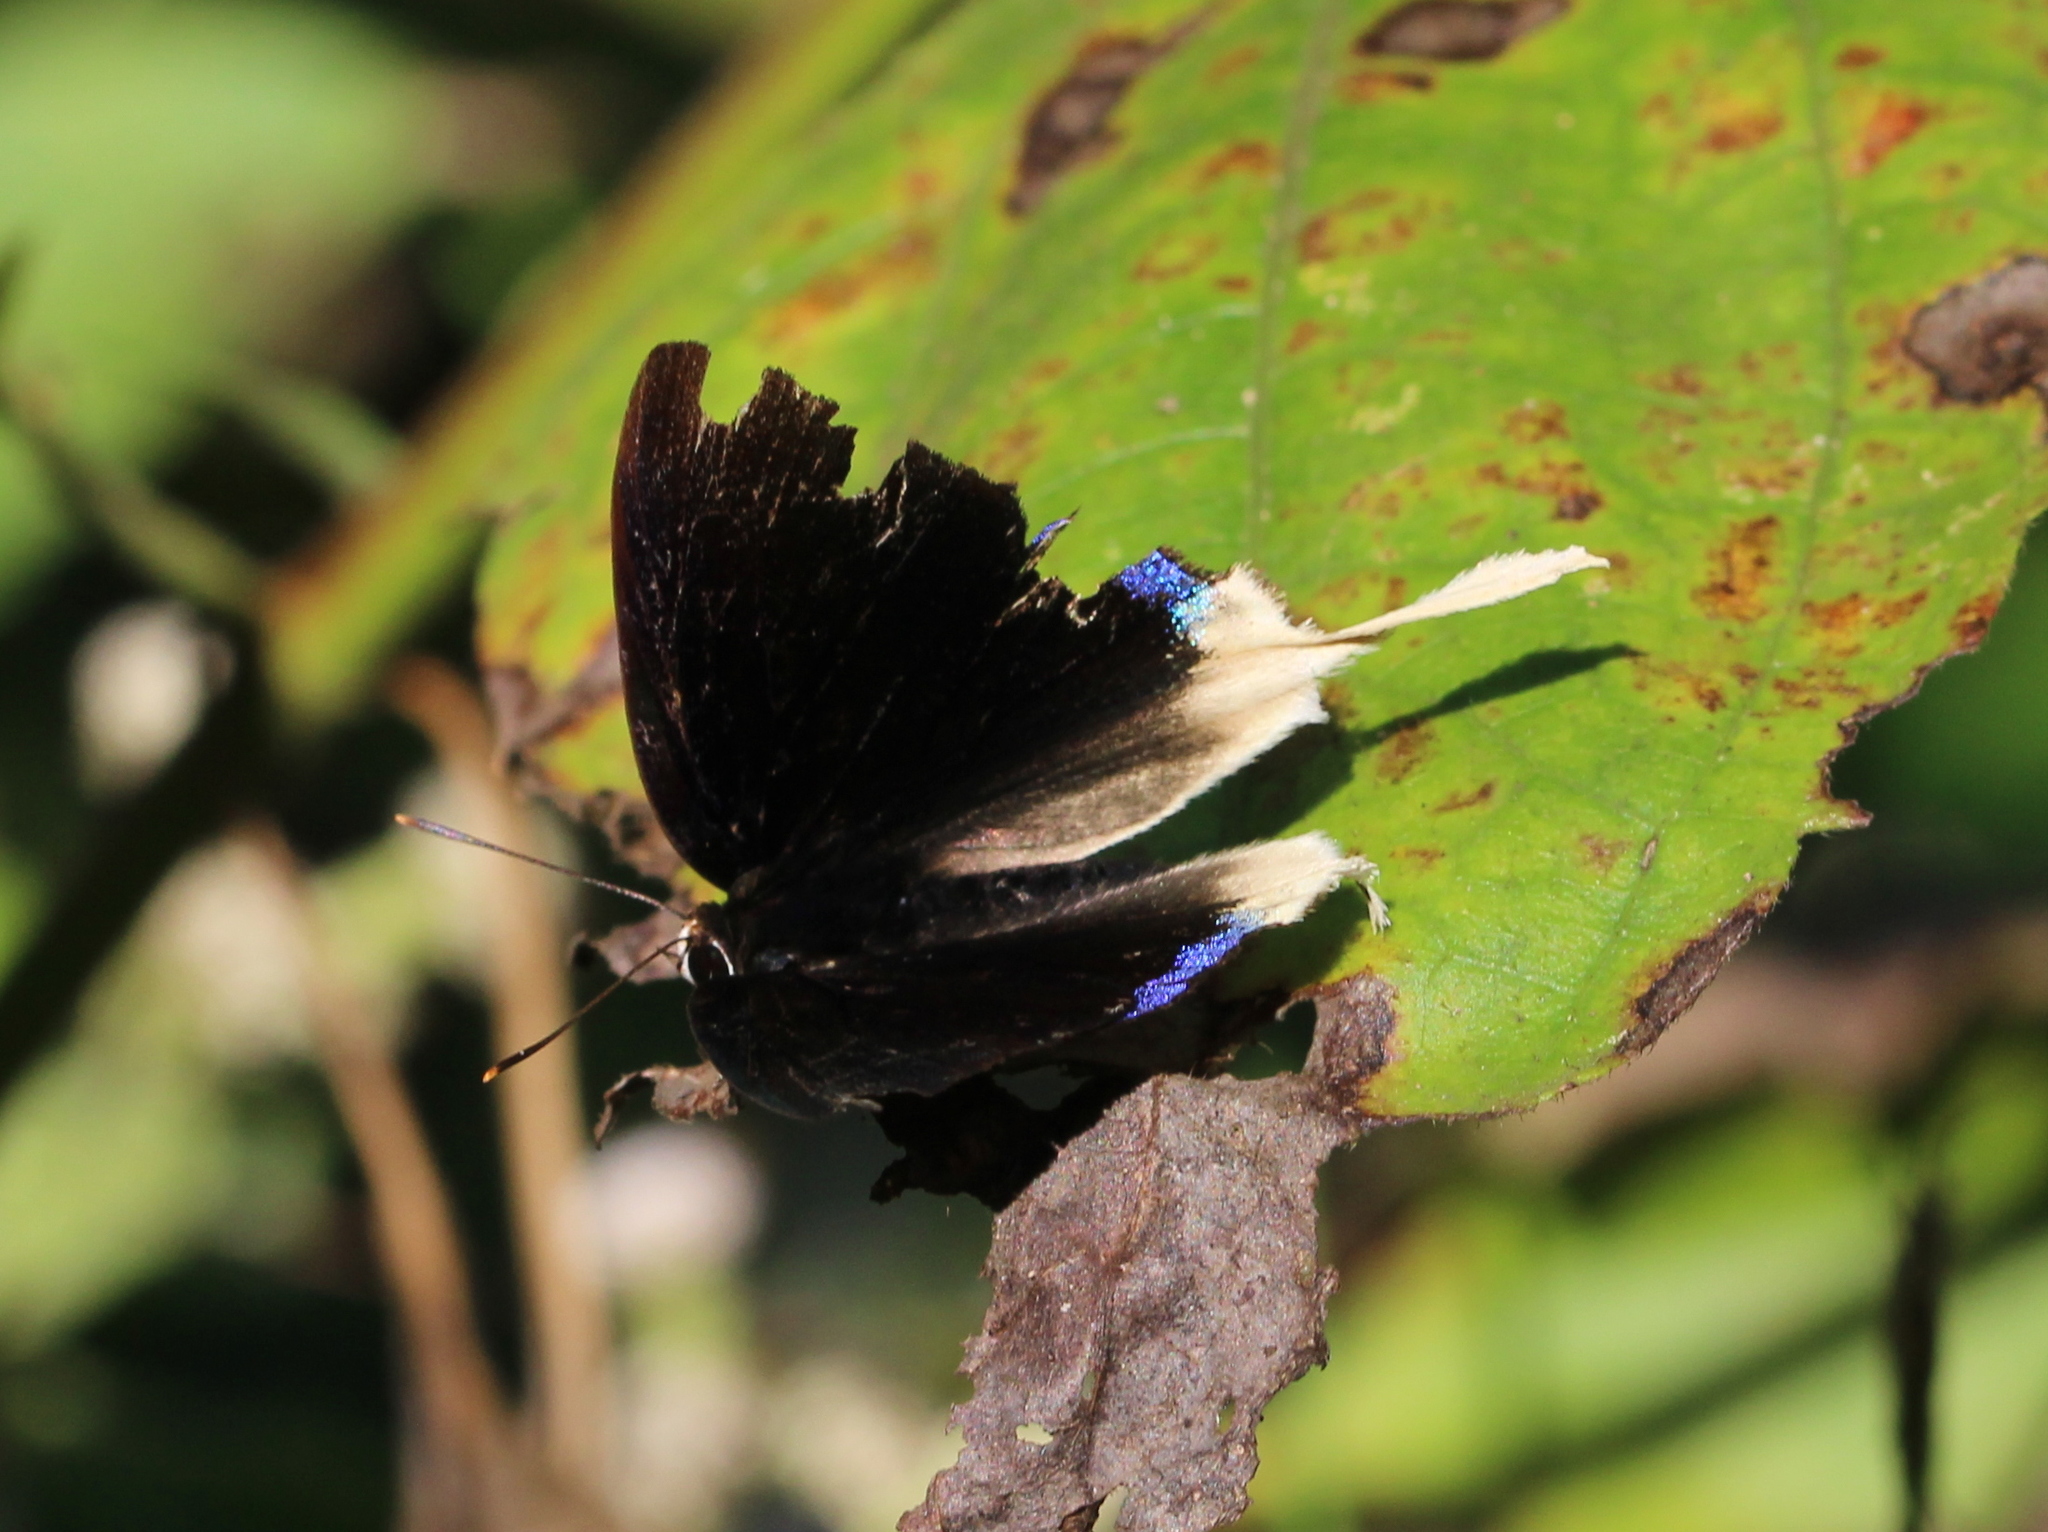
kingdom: Animalia
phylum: Arthropoda
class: Insecta
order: Lepidoptera
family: Lycaenidae
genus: Bindahara
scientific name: Bindahara phocides
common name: Sword-tailed flash
